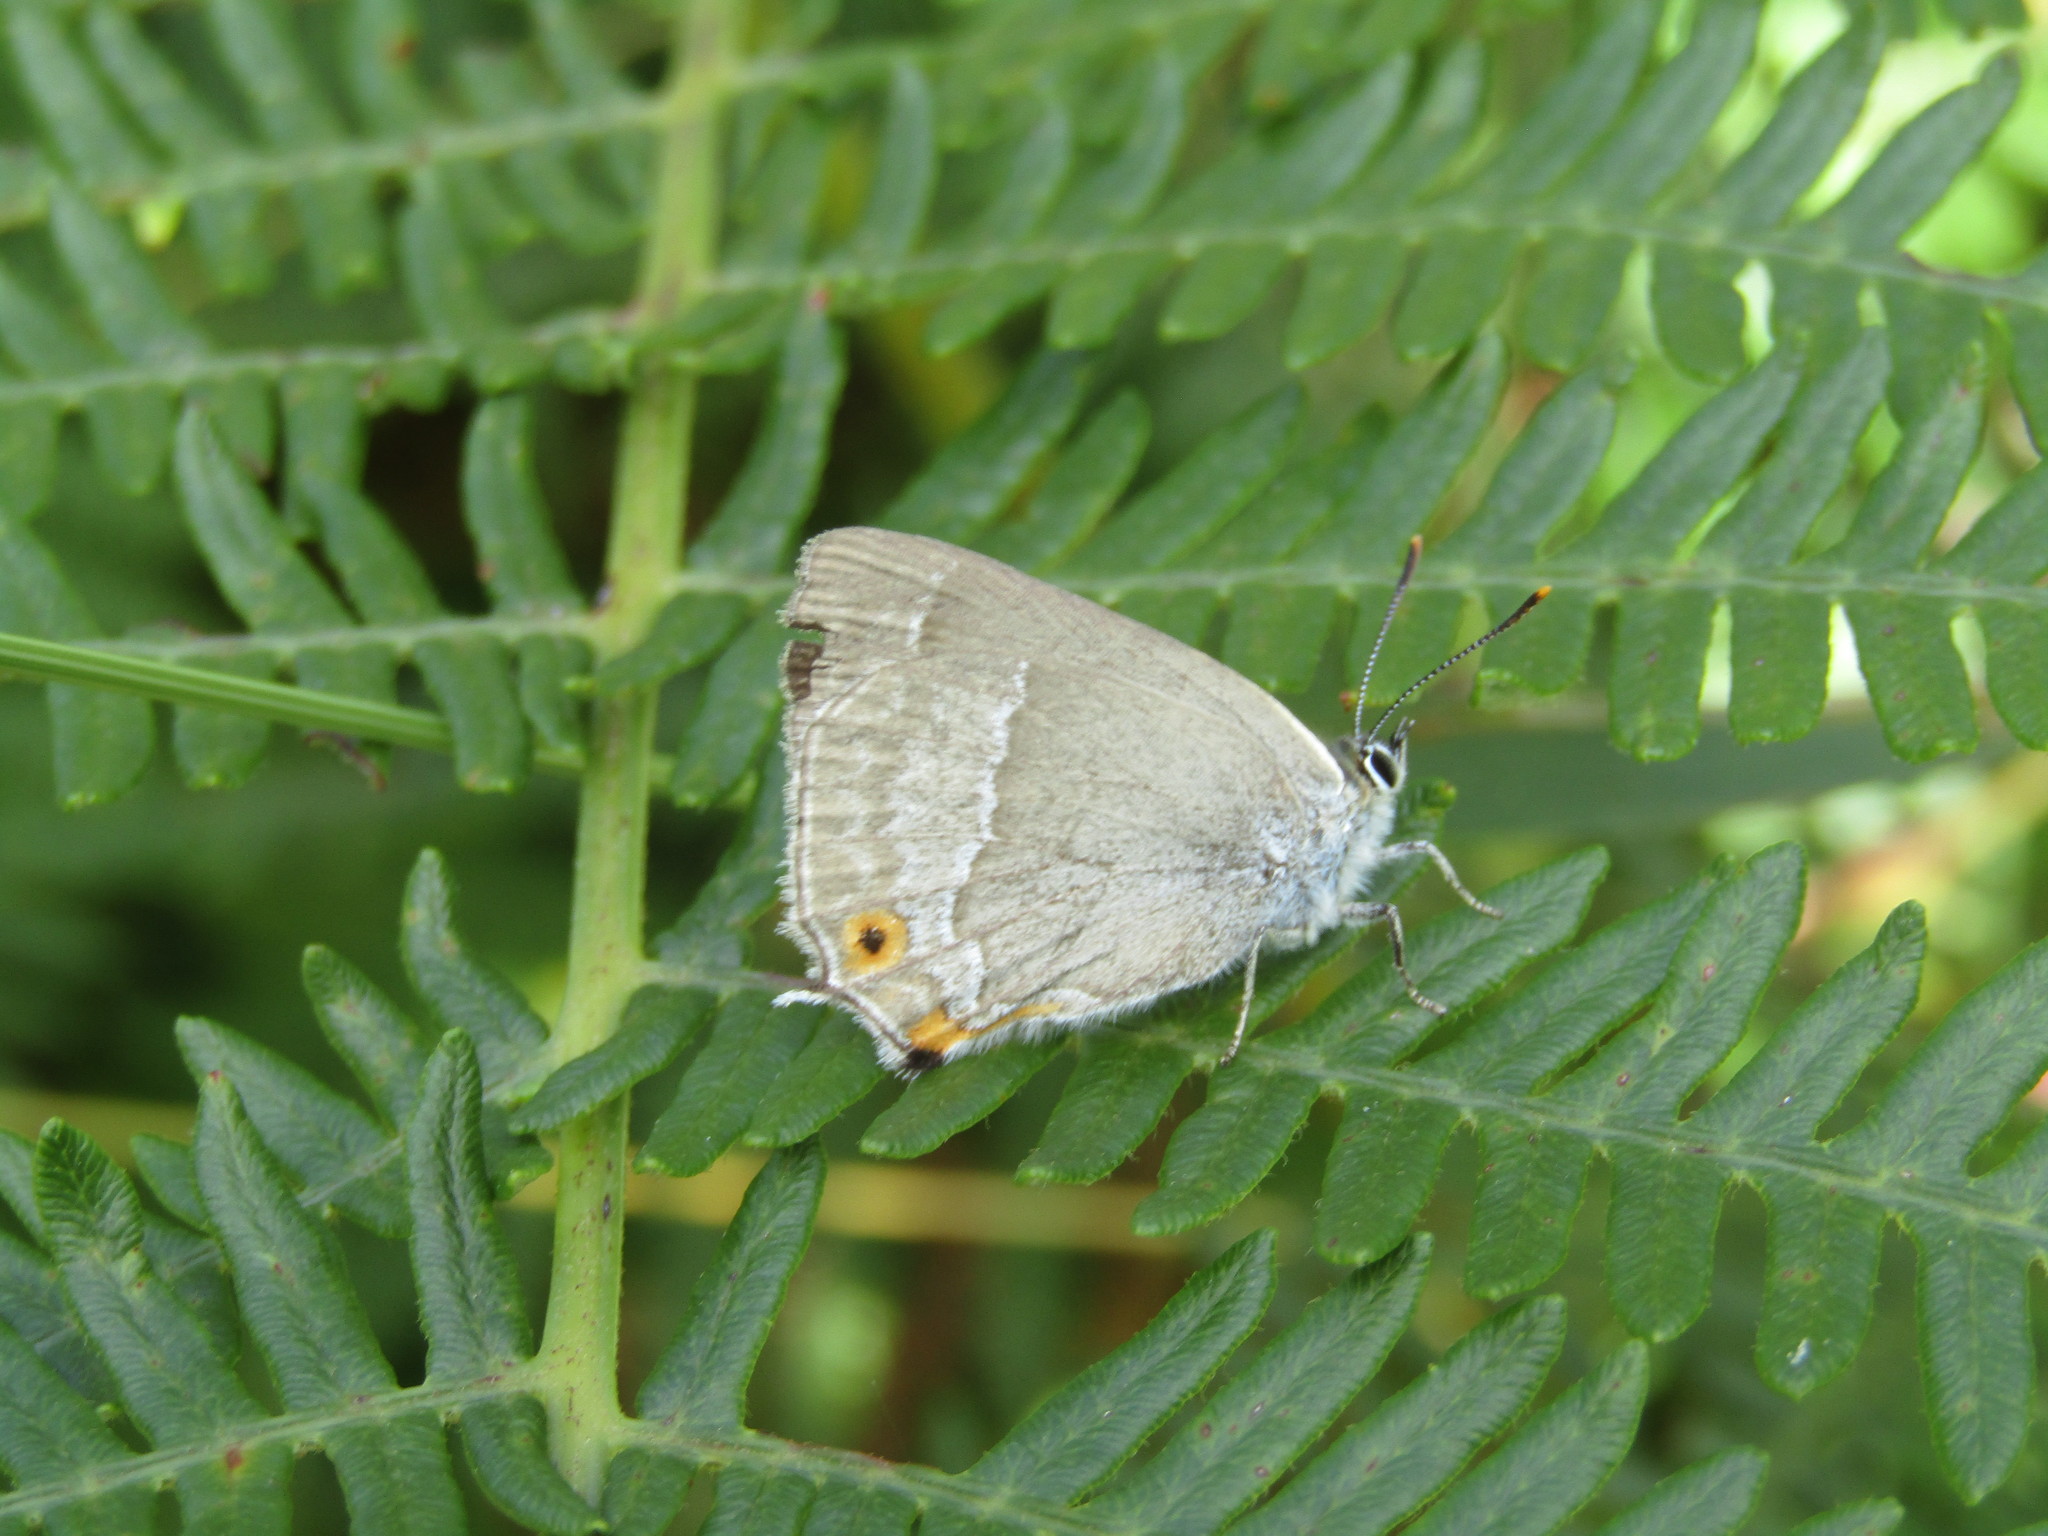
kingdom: Animalia
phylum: Arthropoda
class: Insecta
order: Lepidoptera
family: Lycaenidae
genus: Quercusia
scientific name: Quercusia quercus
